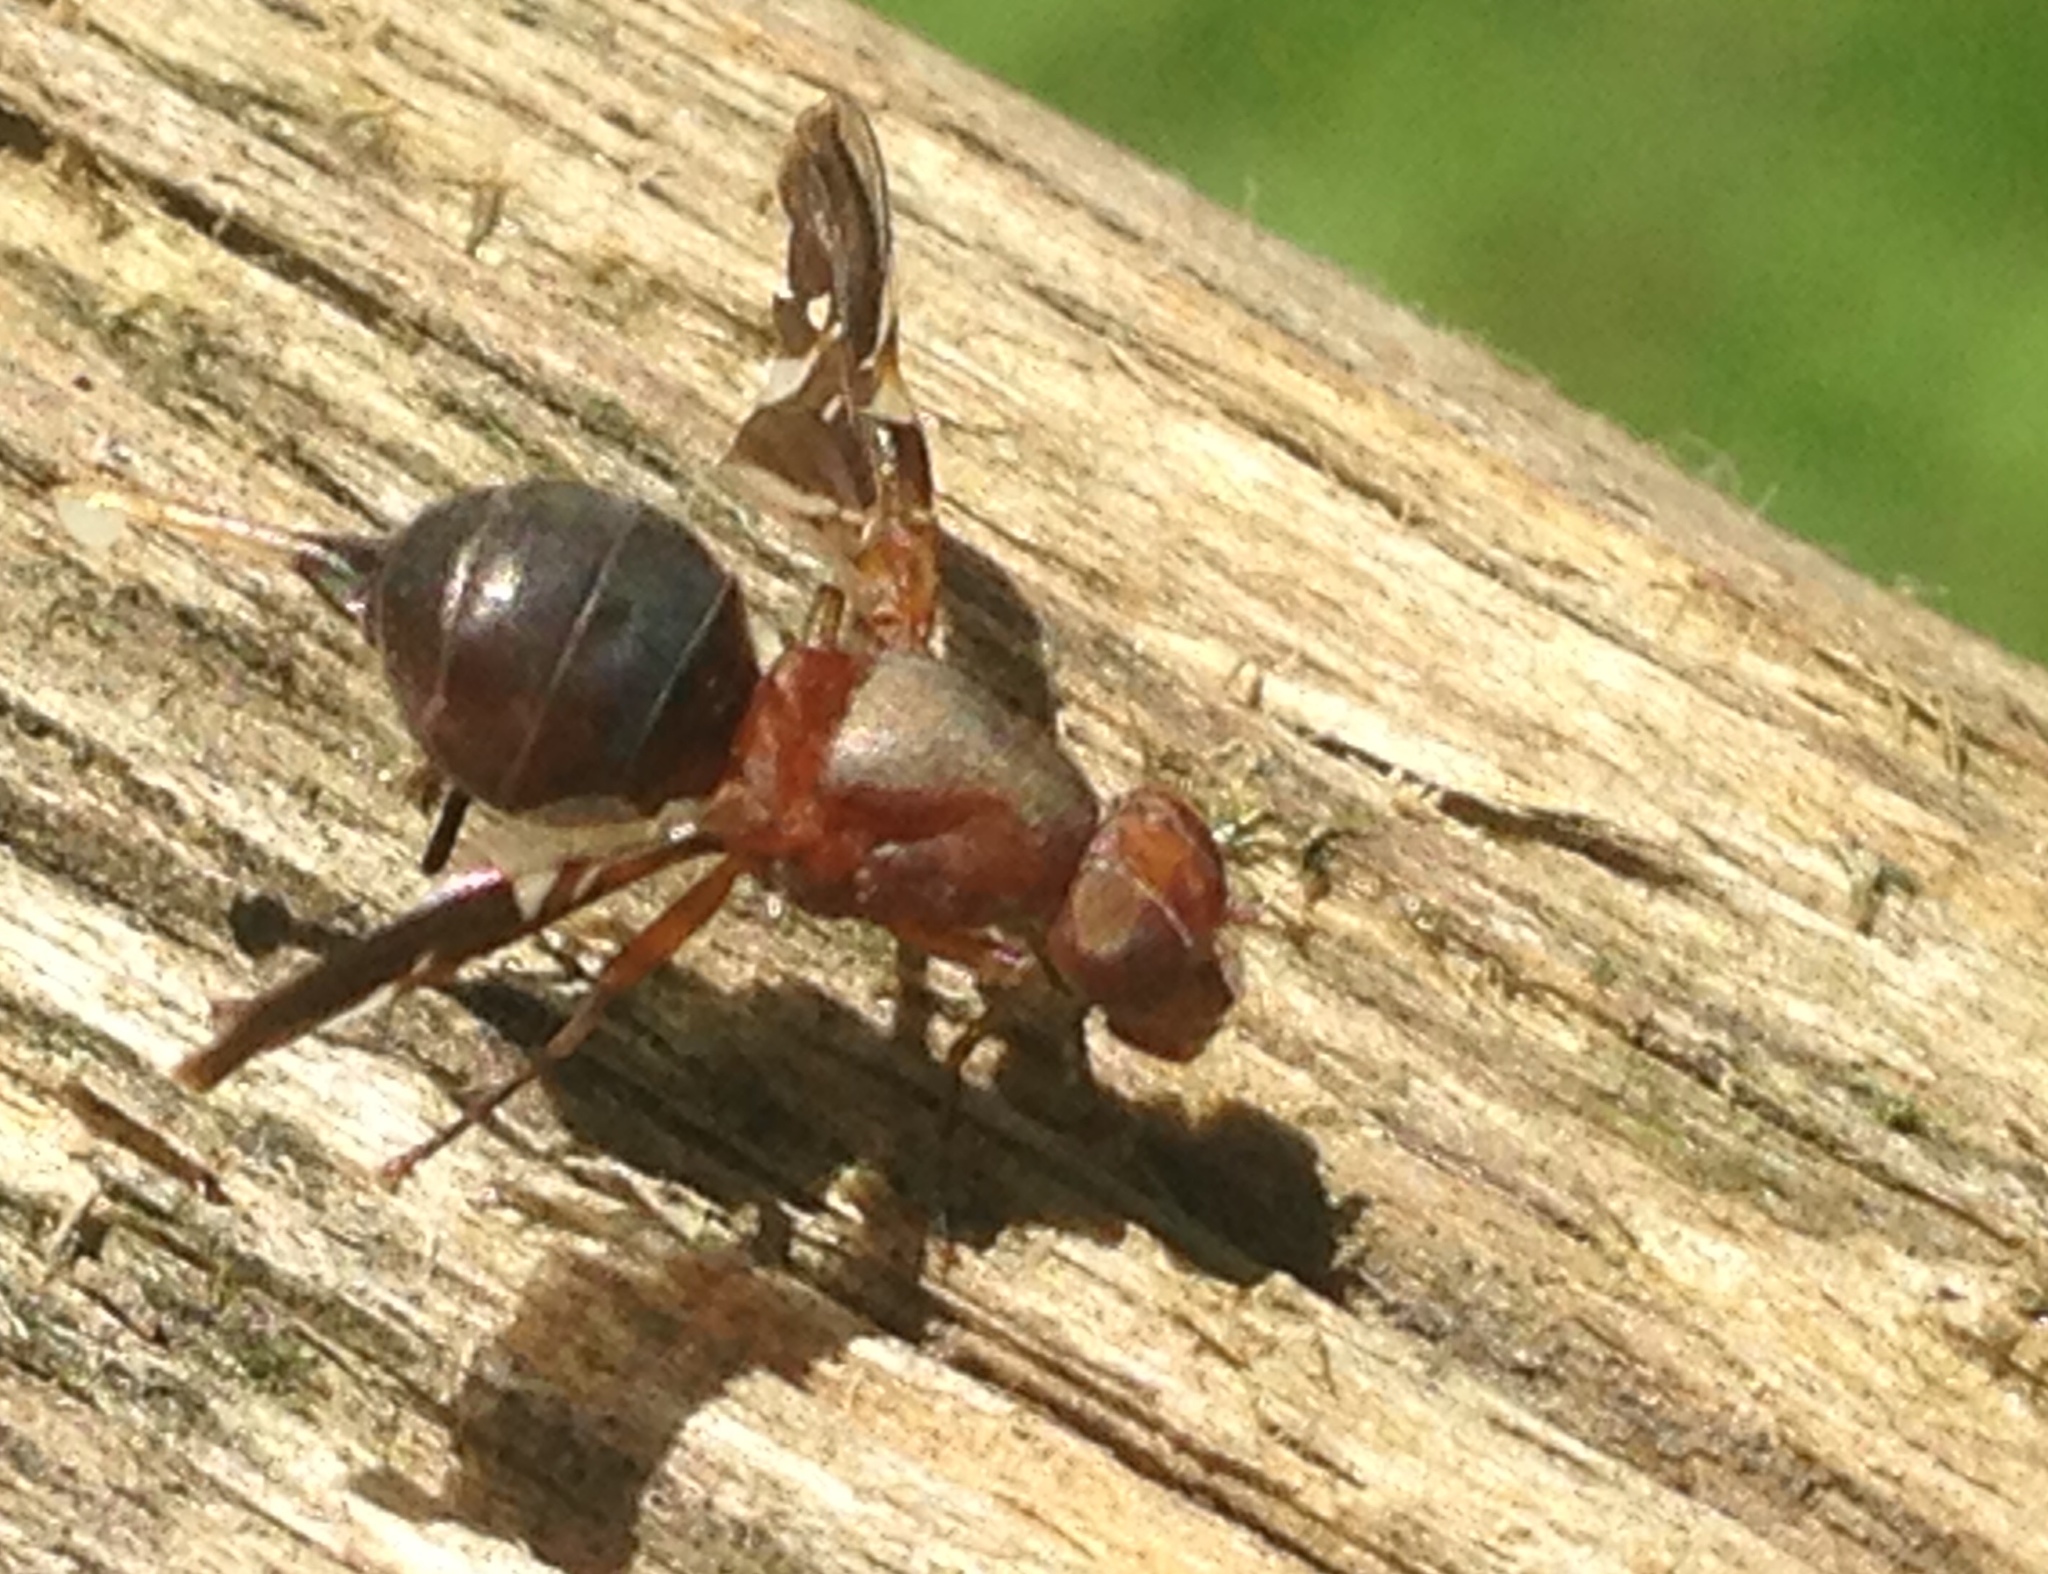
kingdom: Animalia
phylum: Arthropoda
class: Insecta
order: Diptera
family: Ulidiidae
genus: Delphinia
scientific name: Delphinia picta
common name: Common picture-winged fly
